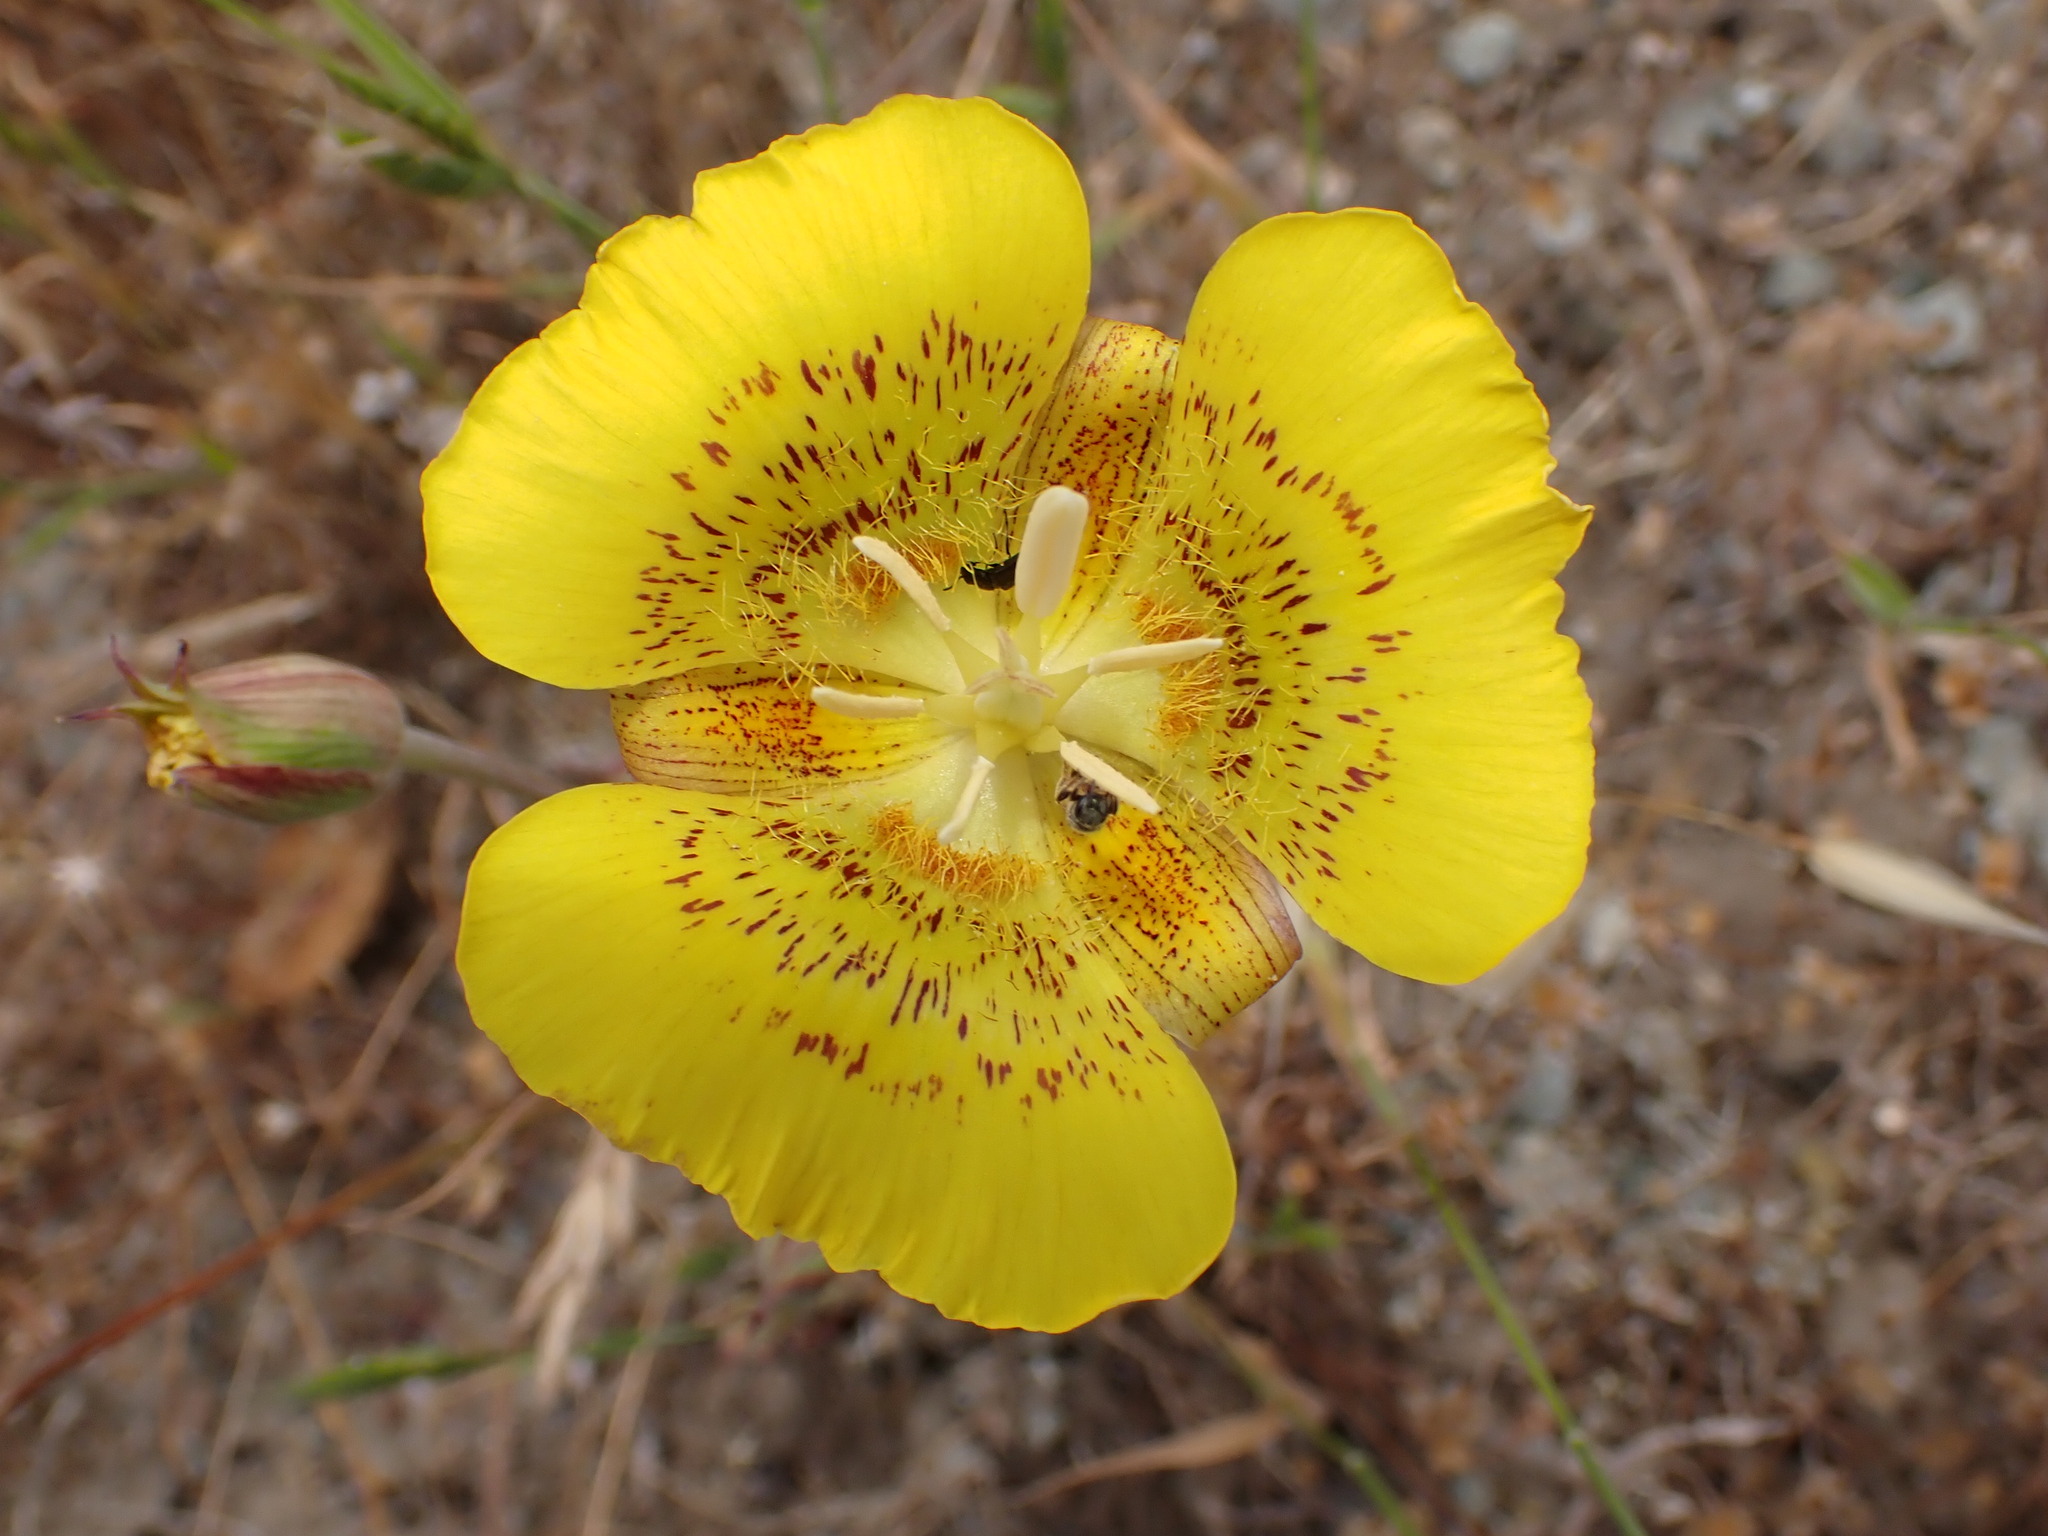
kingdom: Plantae
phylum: Tracheophyta
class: Liliopsida
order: Liliales
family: Liliaceae
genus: Calochortus
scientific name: Calochortus luteus
